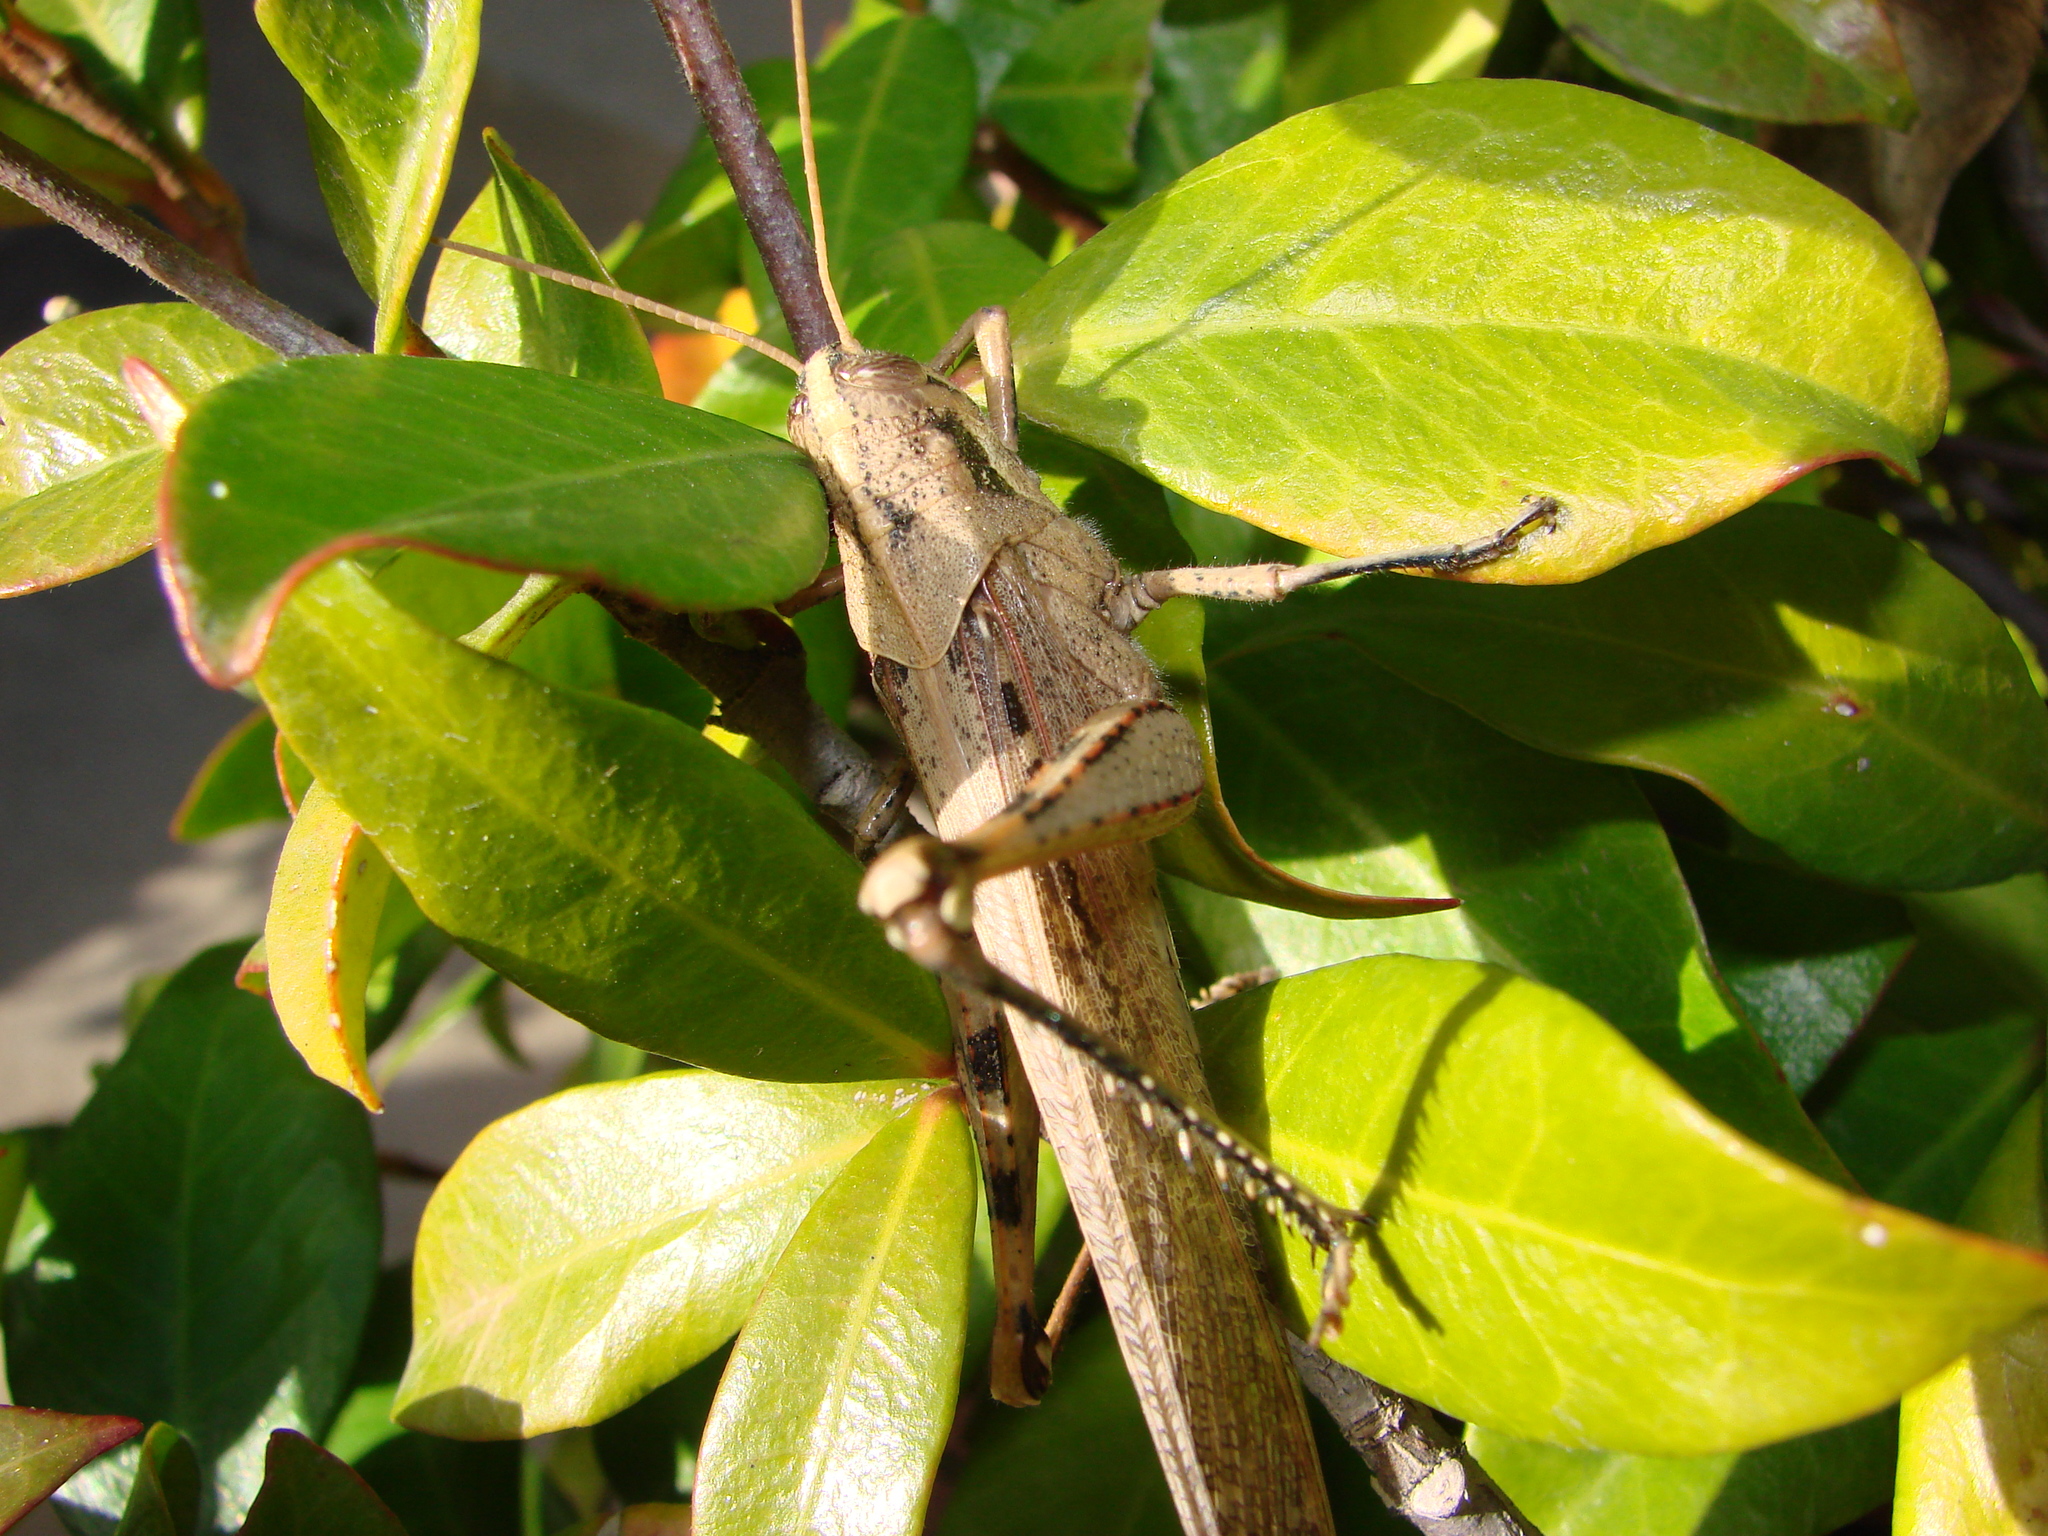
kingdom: Animalia
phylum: Arthropoda
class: Insecta
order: Orthoptera
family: Acrididae
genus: Schistocerca
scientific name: Schistocerca nitens
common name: Vagrant grasshopper
